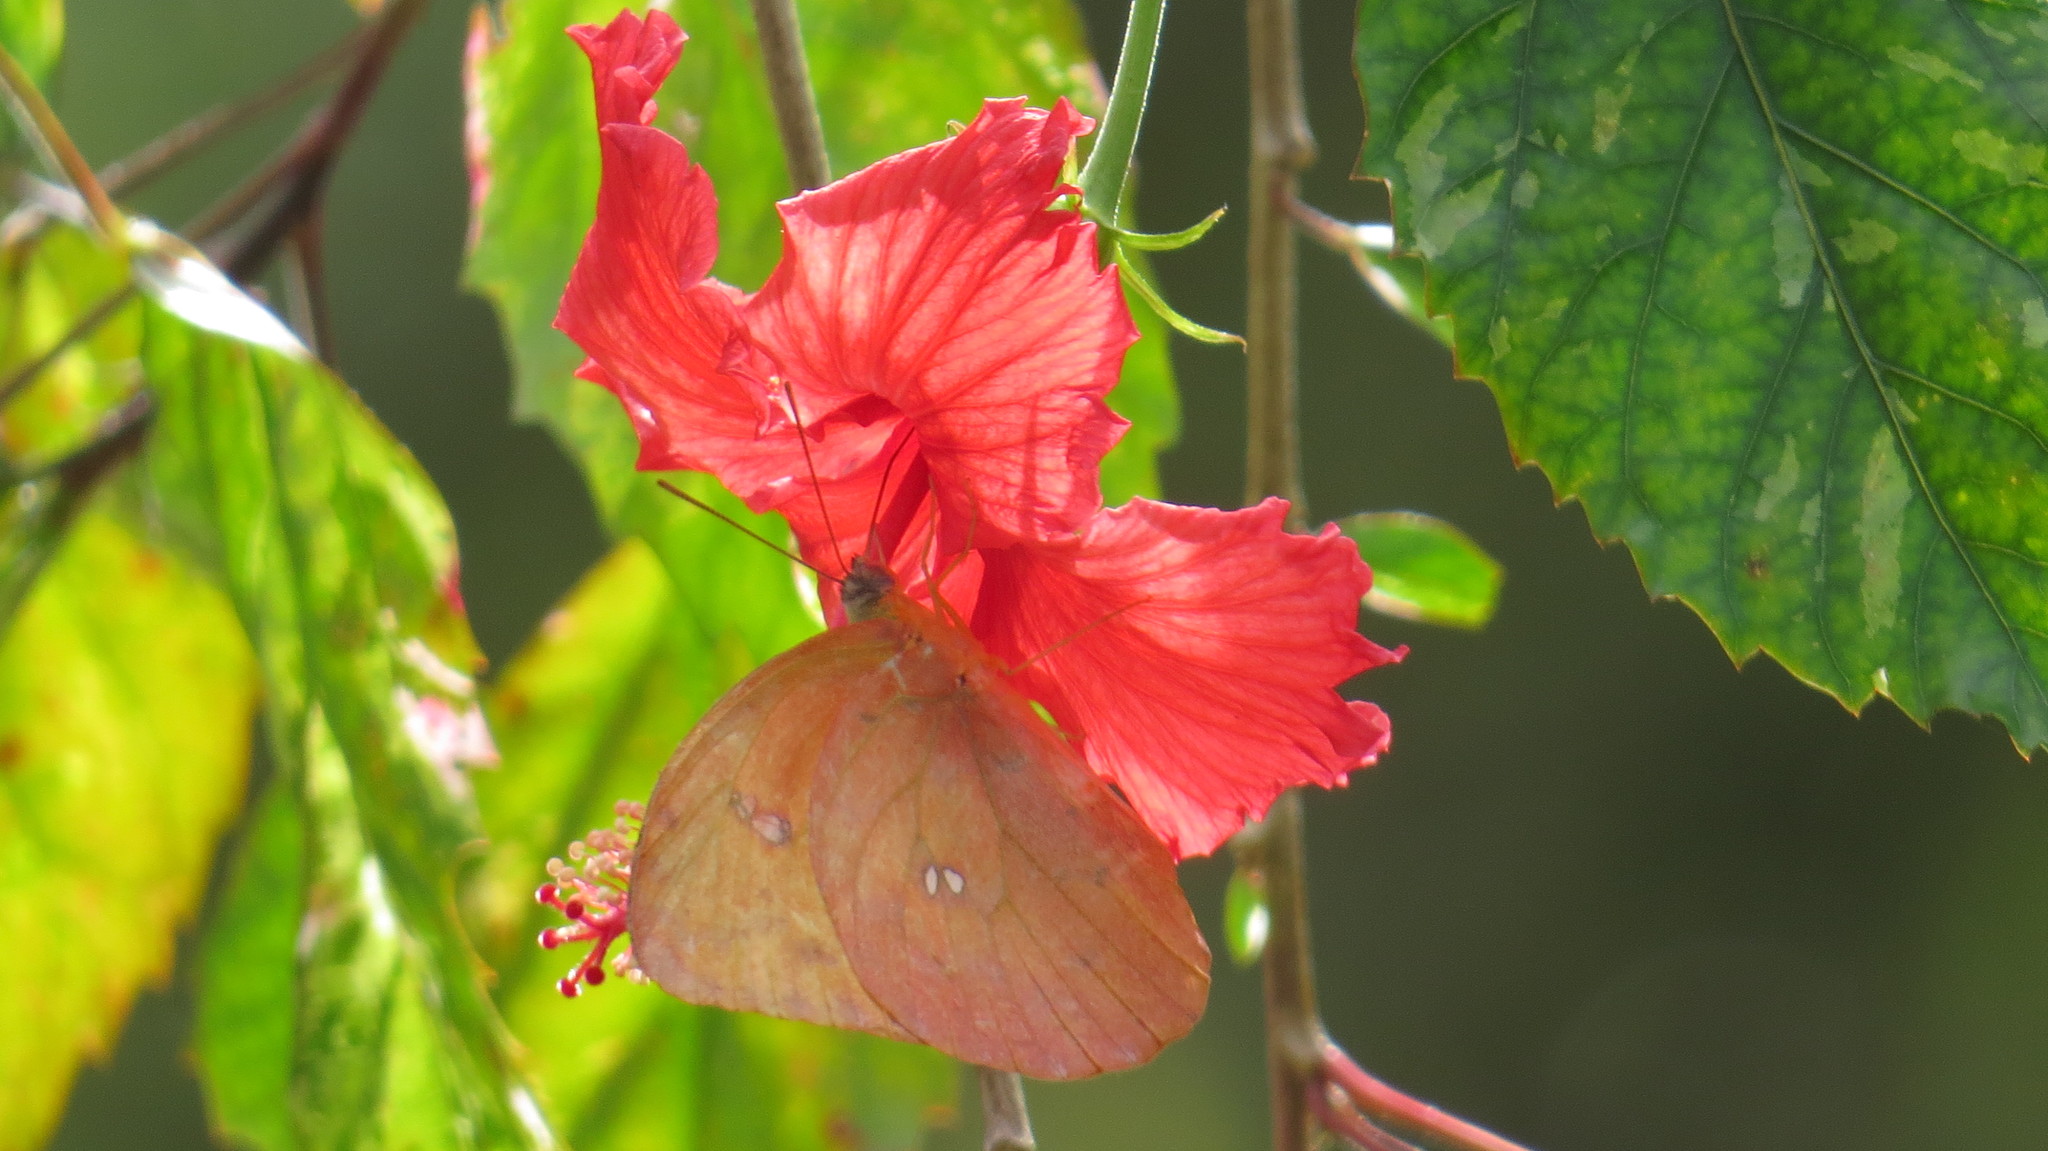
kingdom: Animalia
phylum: Arthropoda
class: Insecta
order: Lepidoptera
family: Pieridae
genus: Phoebis
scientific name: Phoebis philea
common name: Orange-barred giant sulphur
